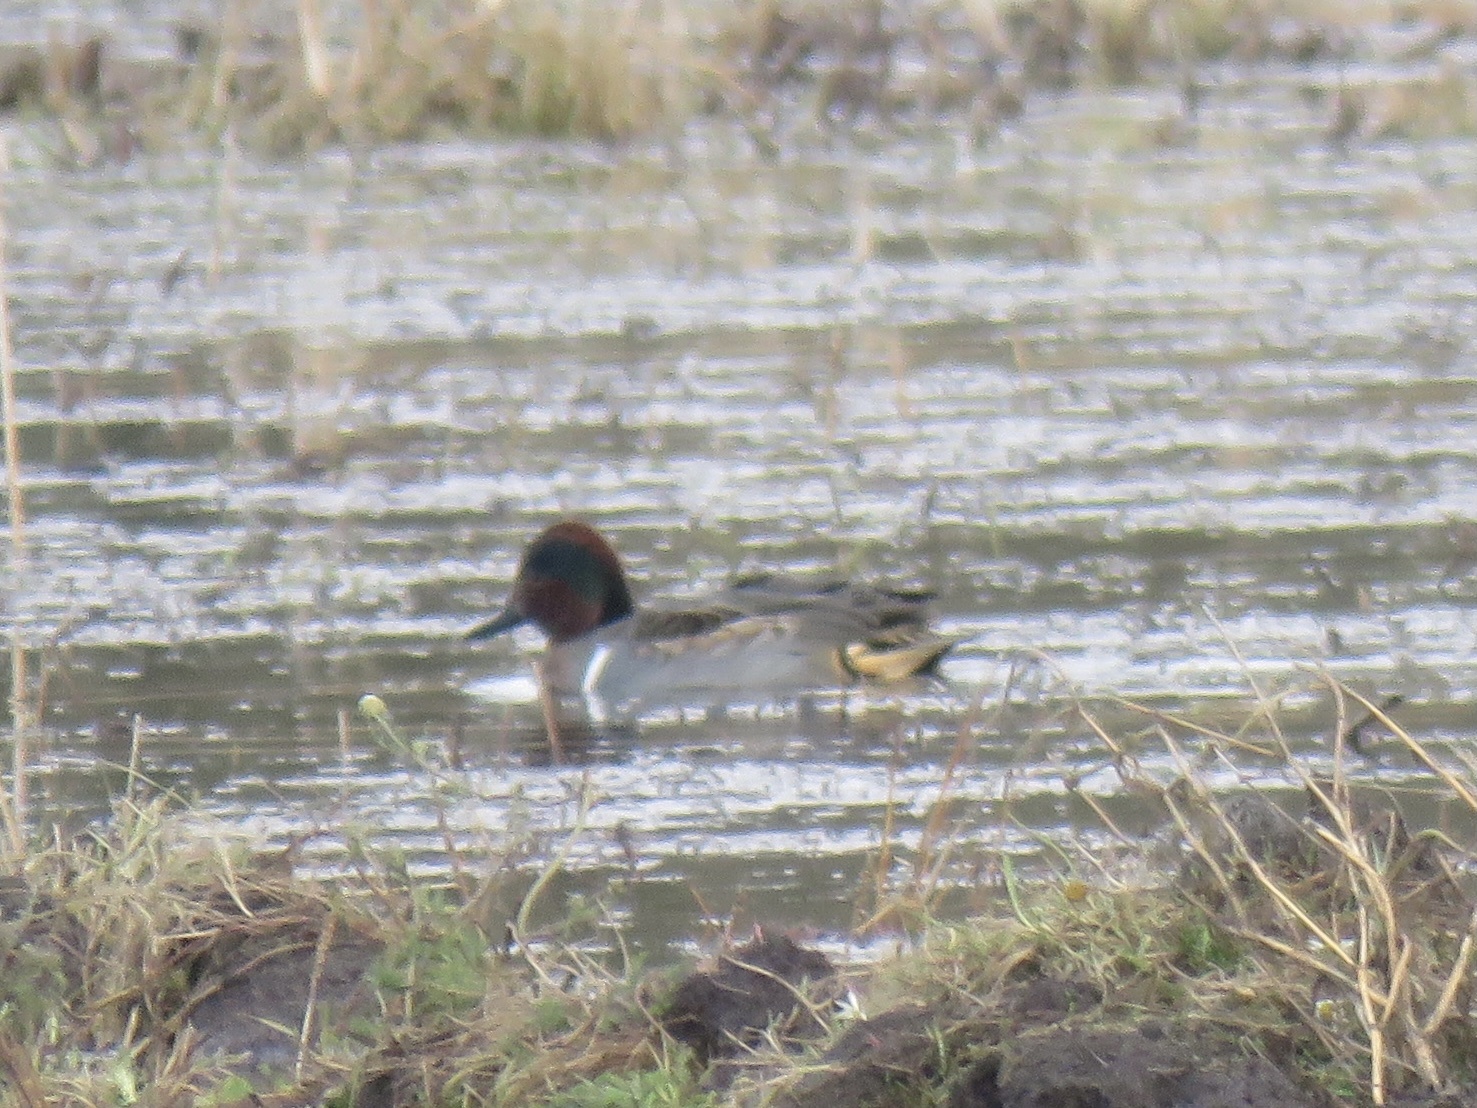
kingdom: Animalia
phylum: Chordata
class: Aves
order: Anseriformes
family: Anatidae
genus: Anas
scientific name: Anas crecca
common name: Eurasian teal
